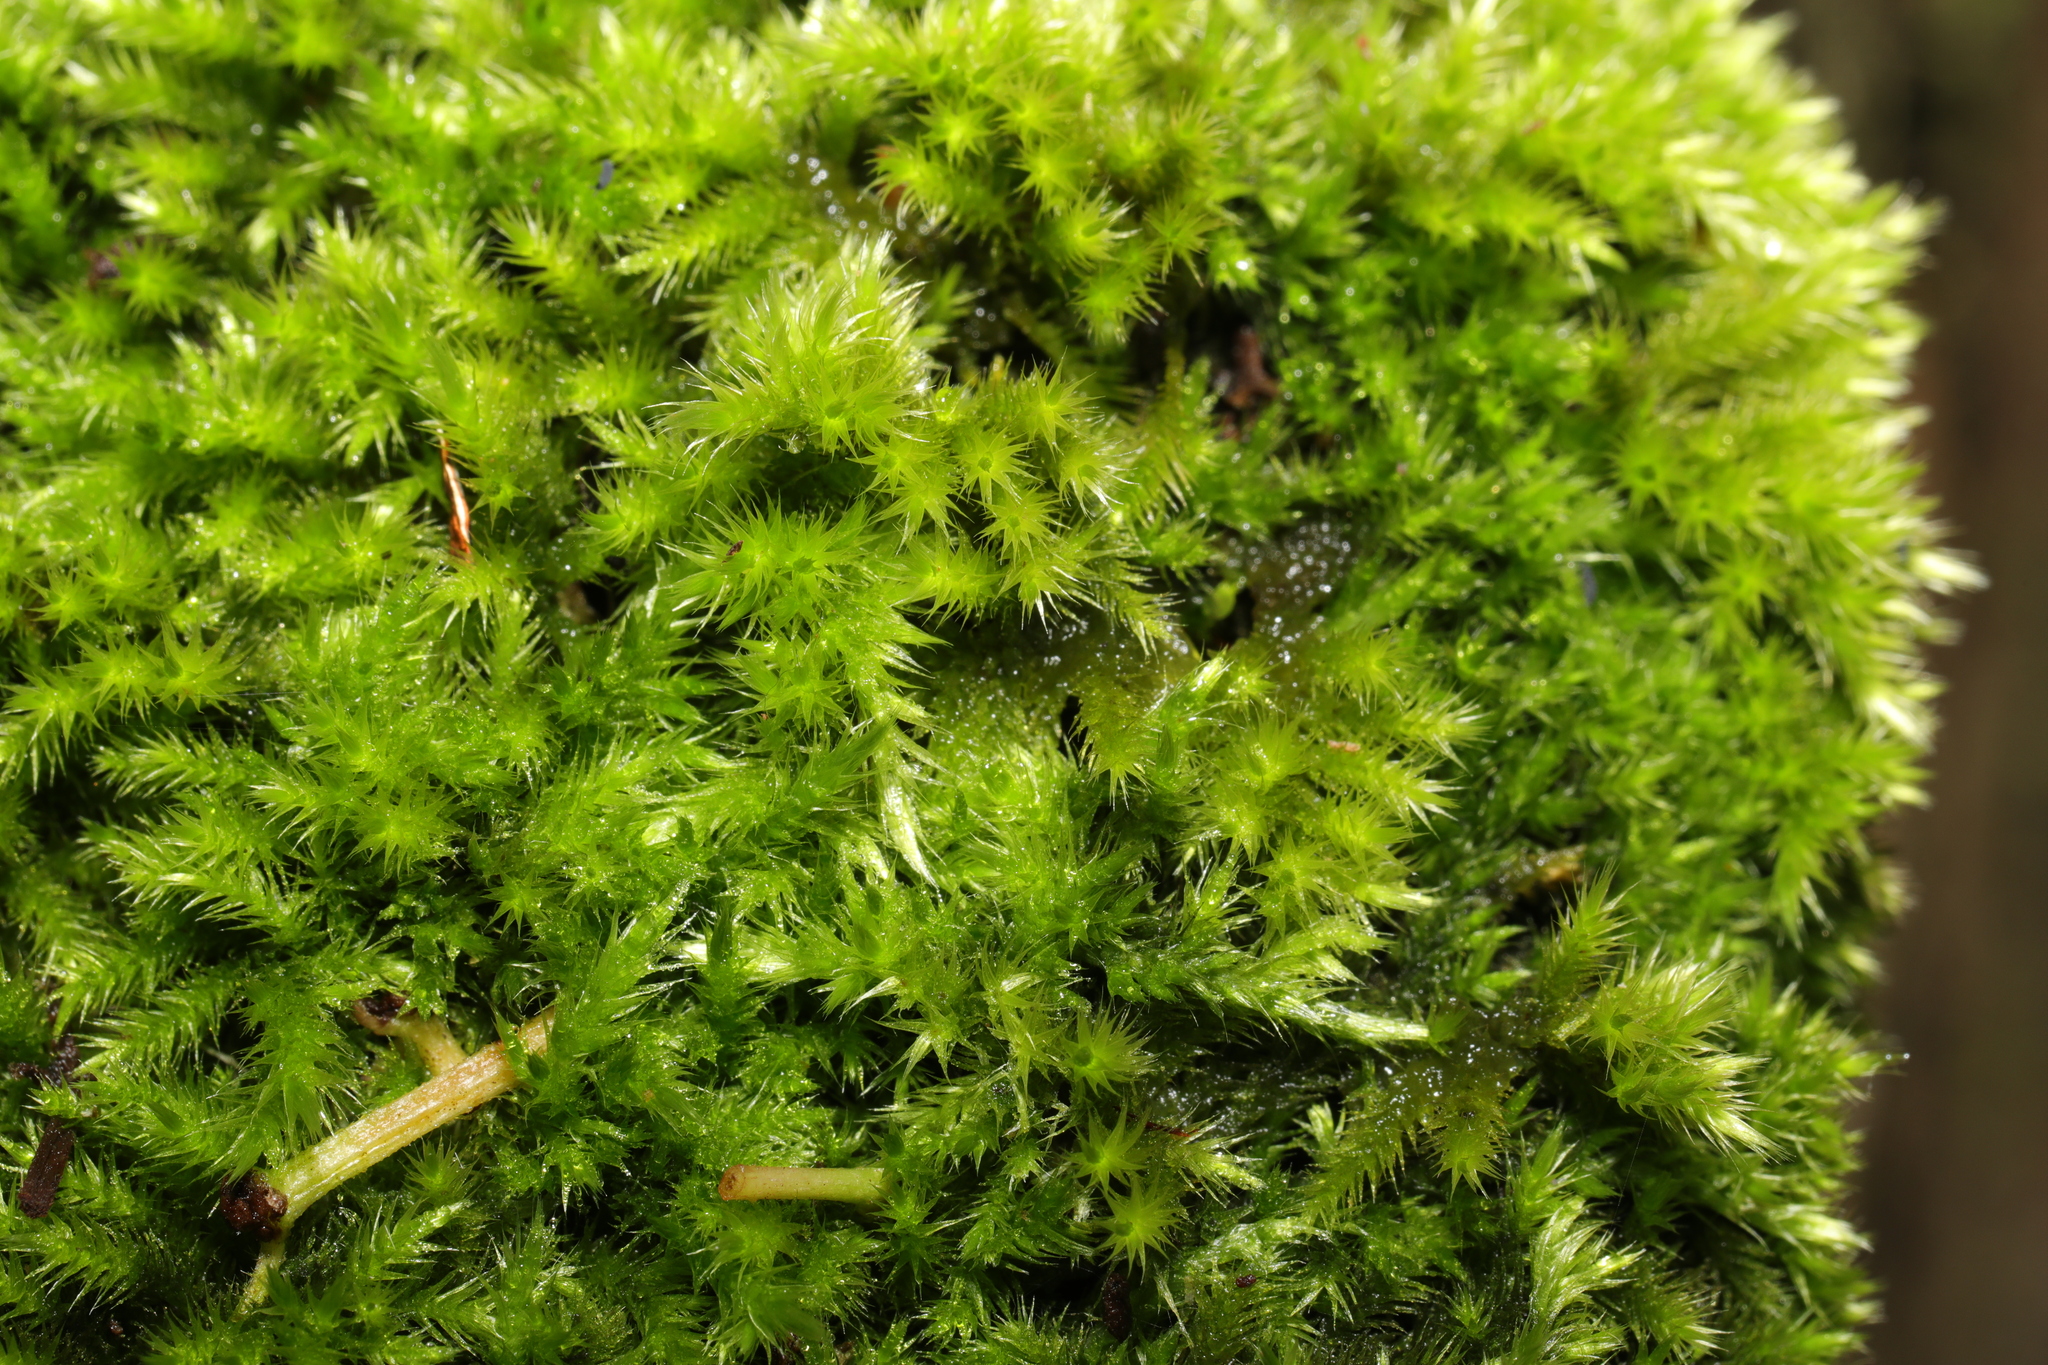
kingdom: Plantae
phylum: Bryophyta
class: Bryopsida
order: Hypnales
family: Brachytheciaceae
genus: Homalothecium
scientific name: Homalothecium sericeum
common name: Silky wall feather-moss
